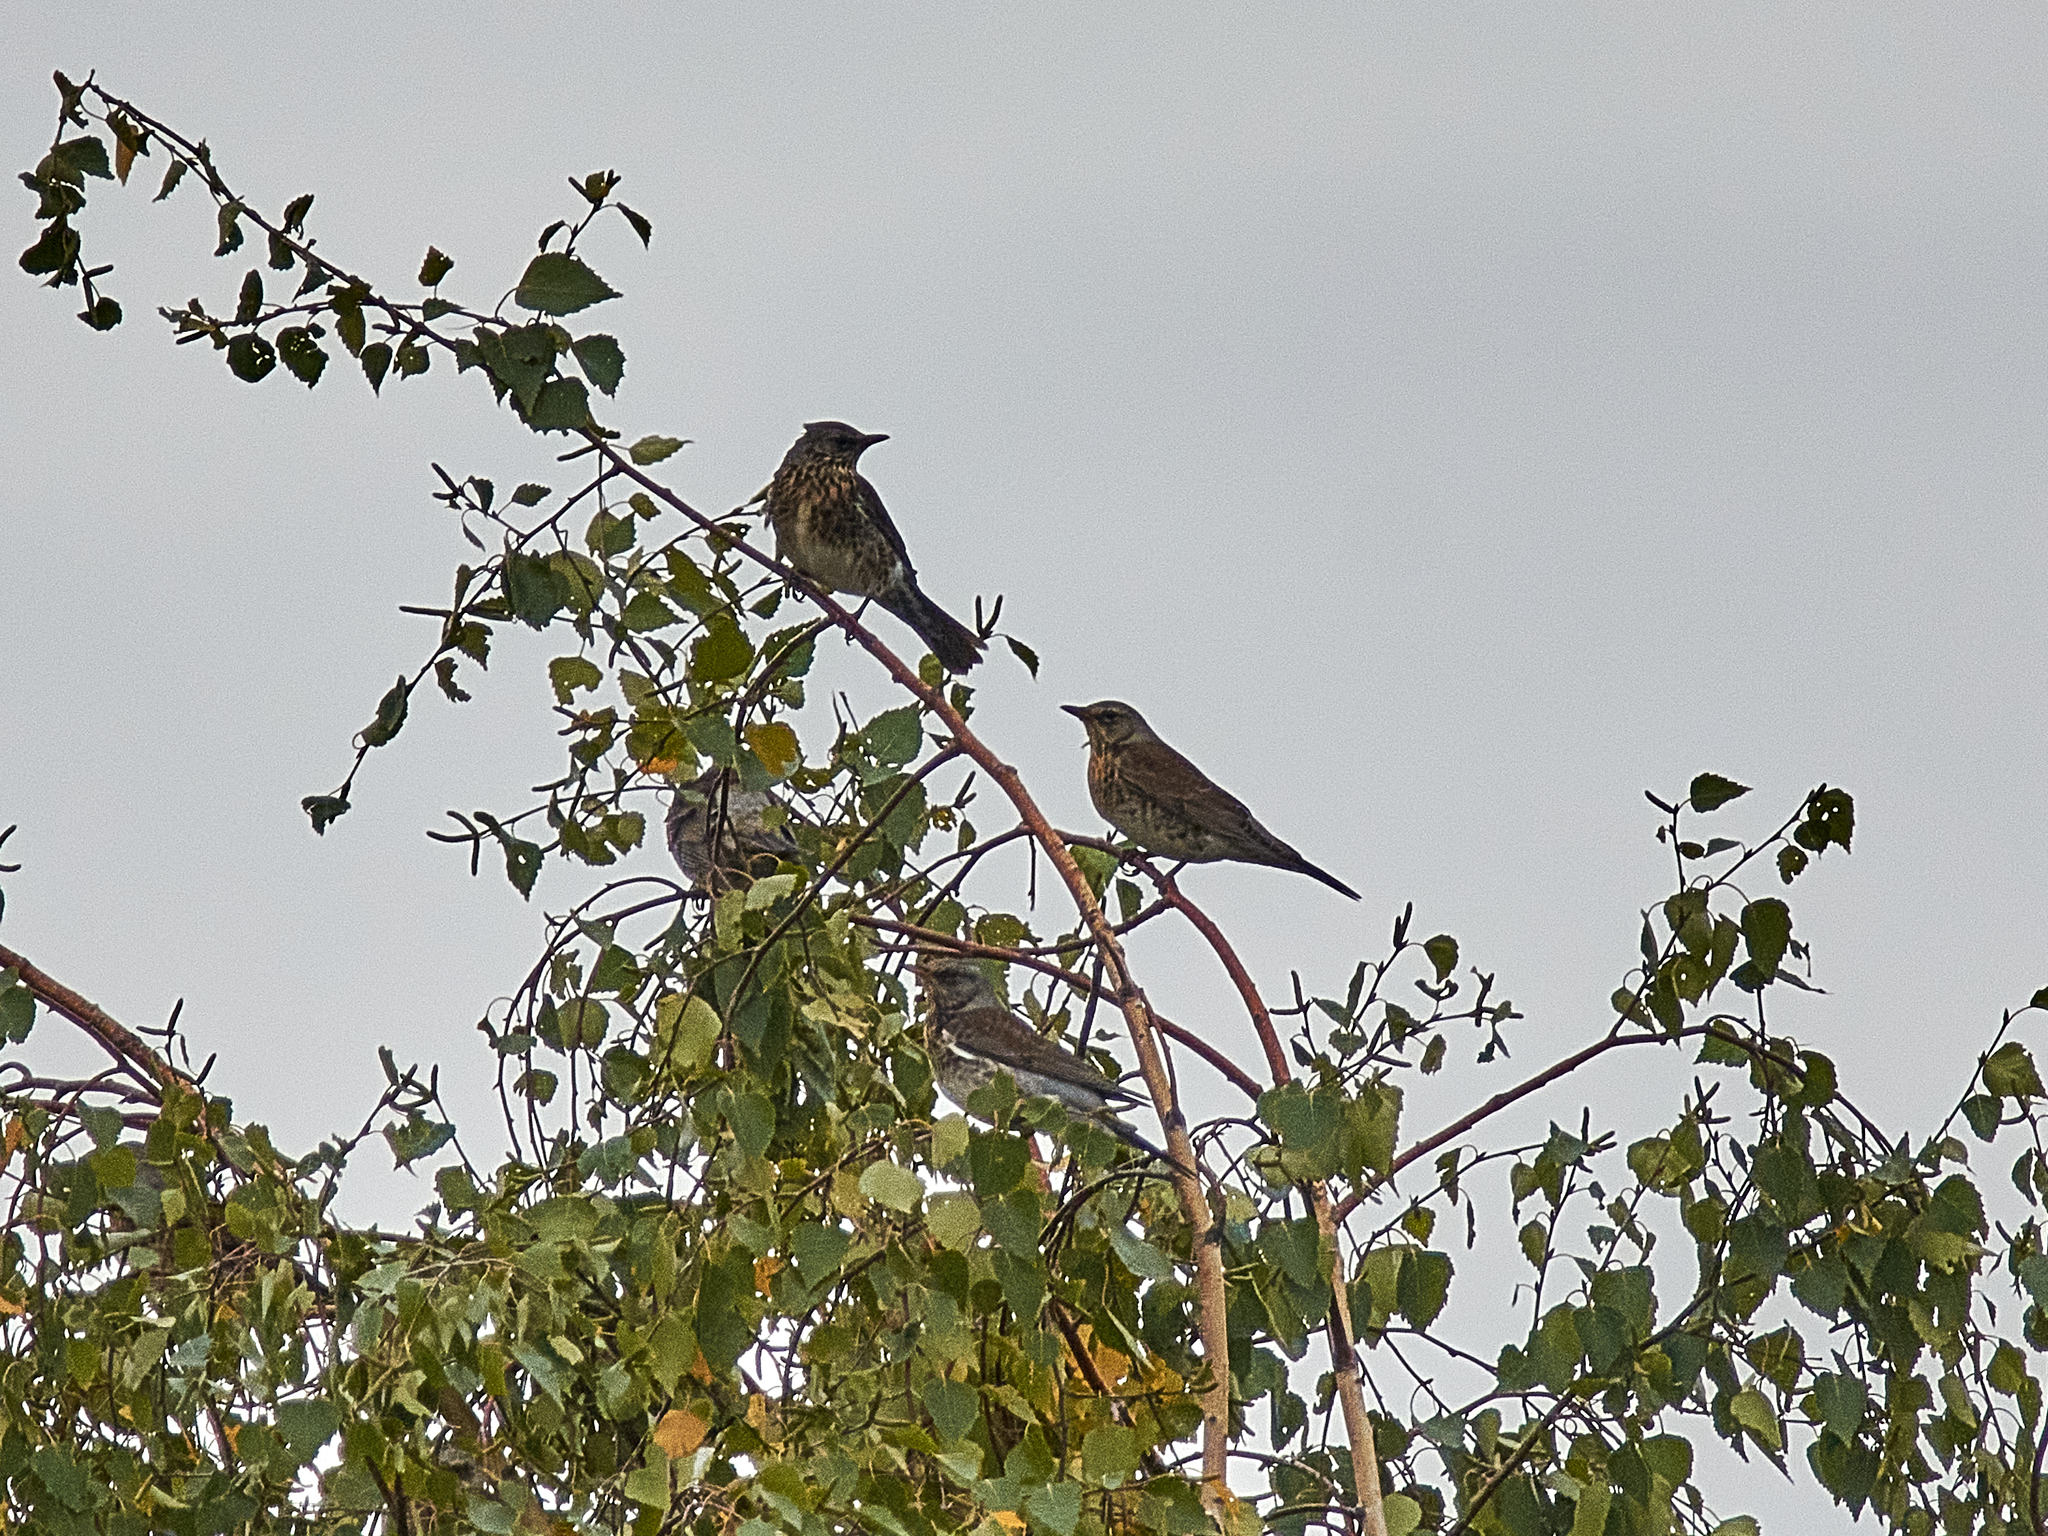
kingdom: Animalia
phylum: Chordata
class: Aves
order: Passeriformes
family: Turdidae
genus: Turdus
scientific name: Turdus pilaris
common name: Fieldfare
